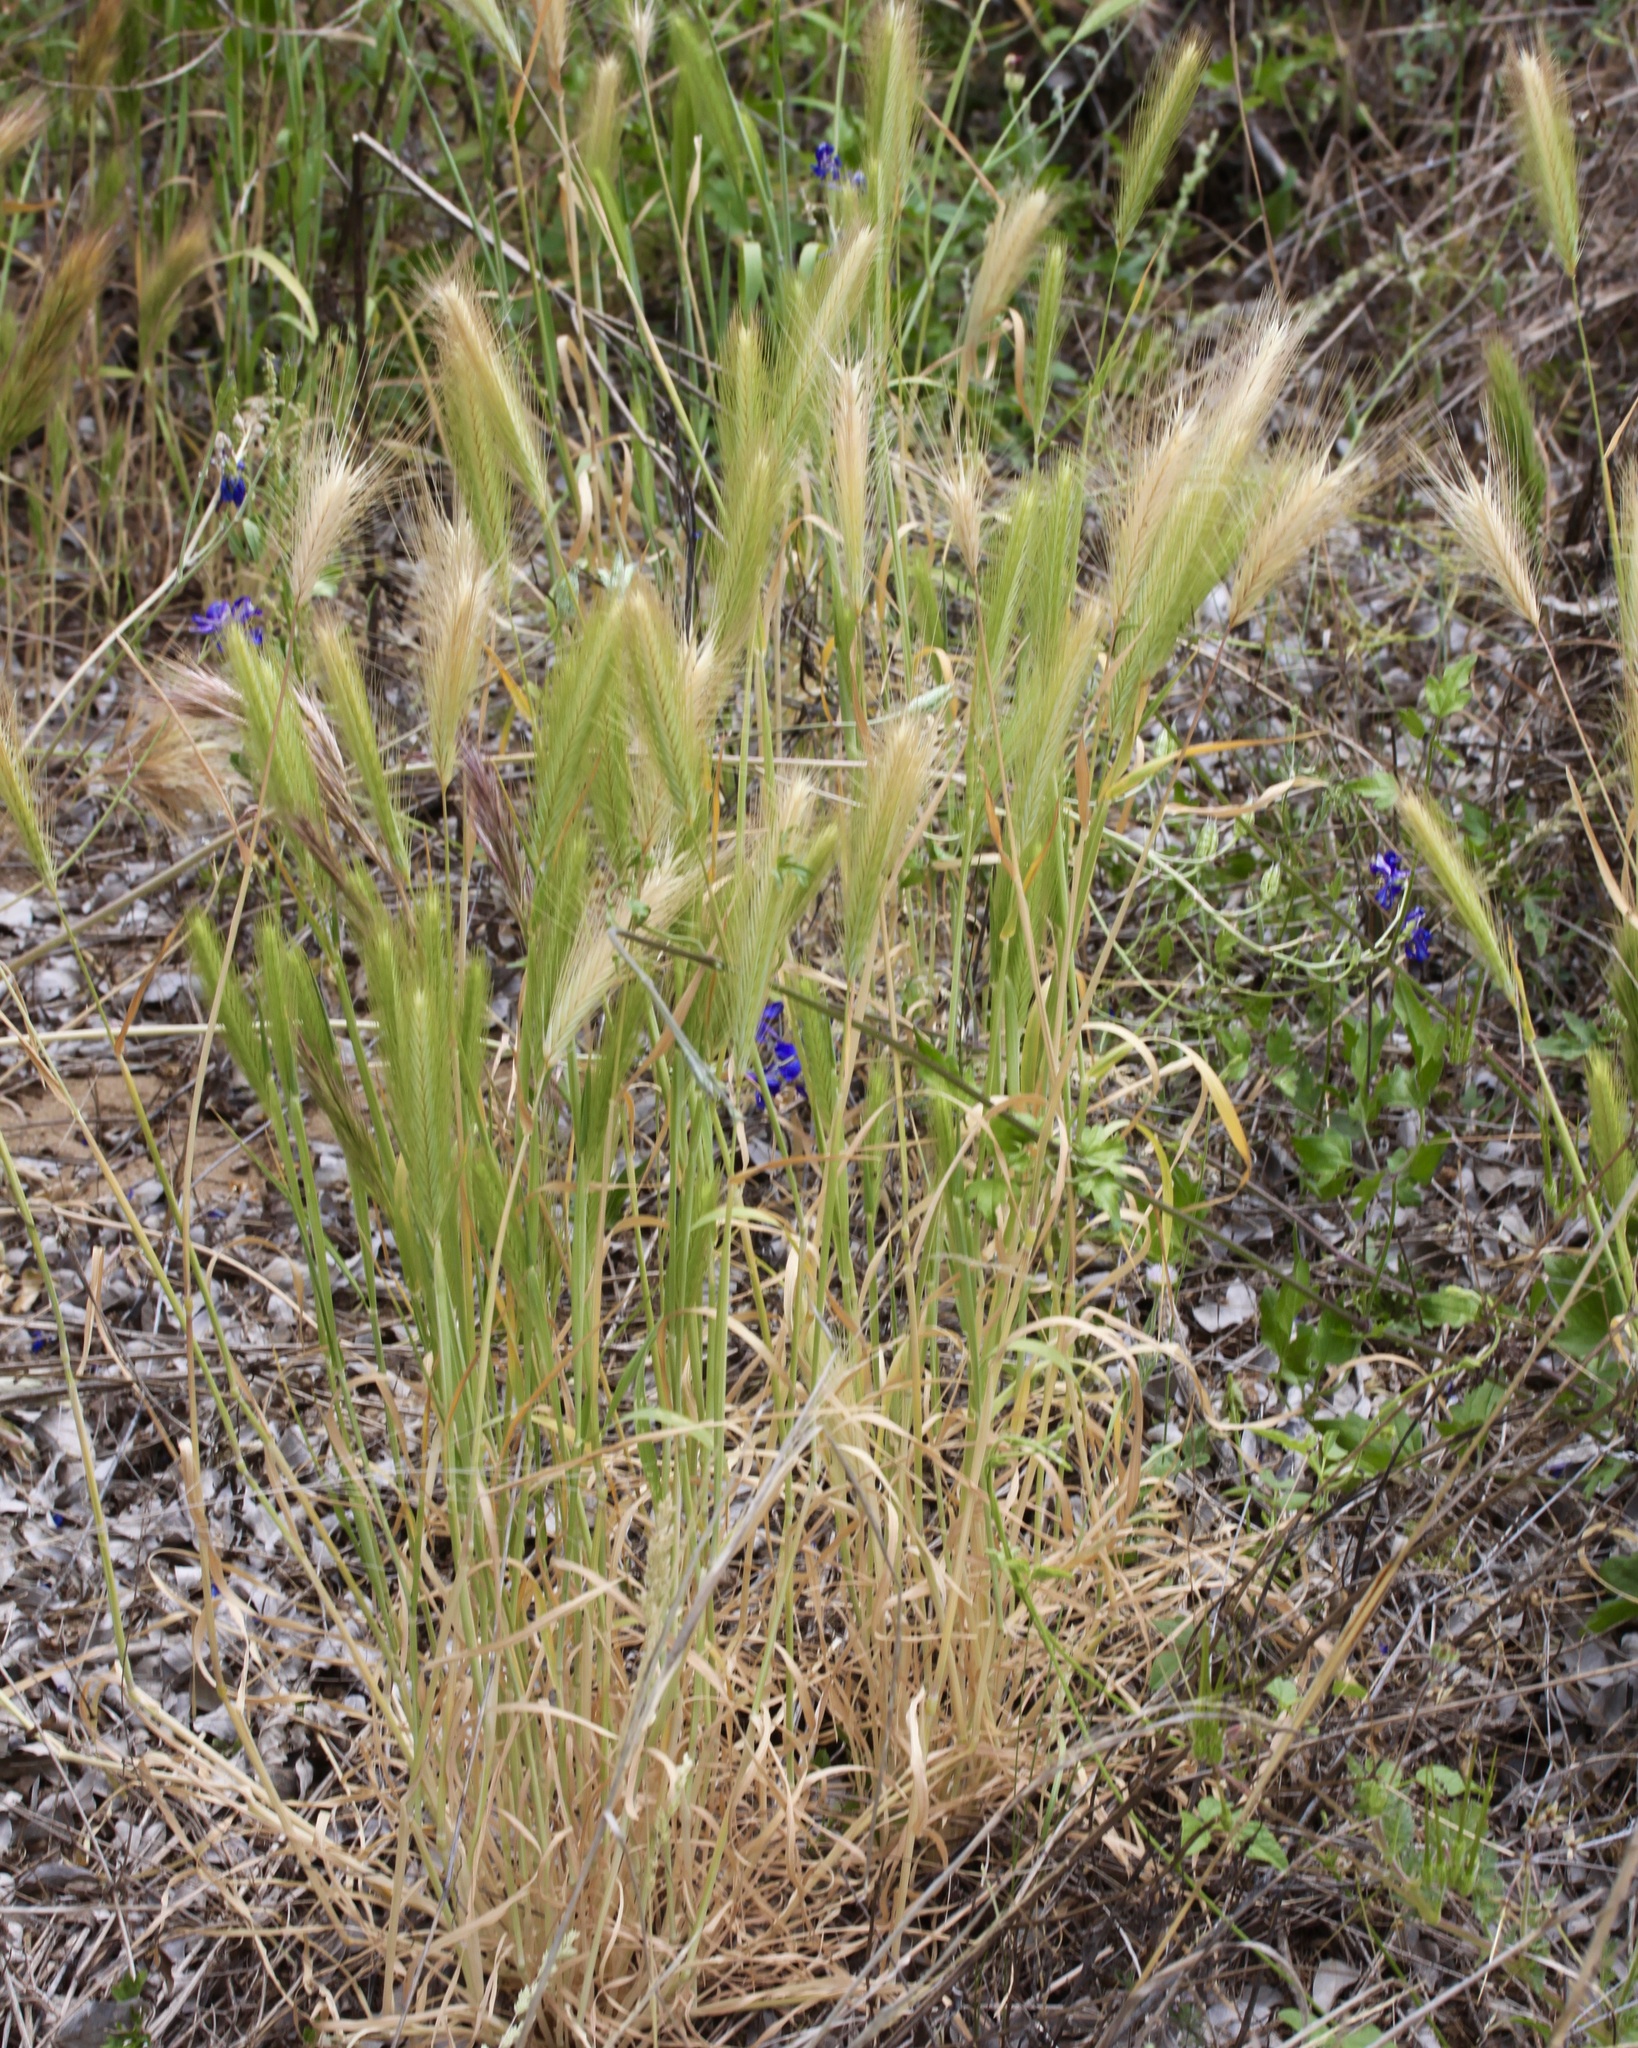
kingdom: Plantae
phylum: Tracheophyta
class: Liliopsida
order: Poales
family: Poaceae
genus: Hordeum
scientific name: Hordeum murinum
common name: Wall barley
